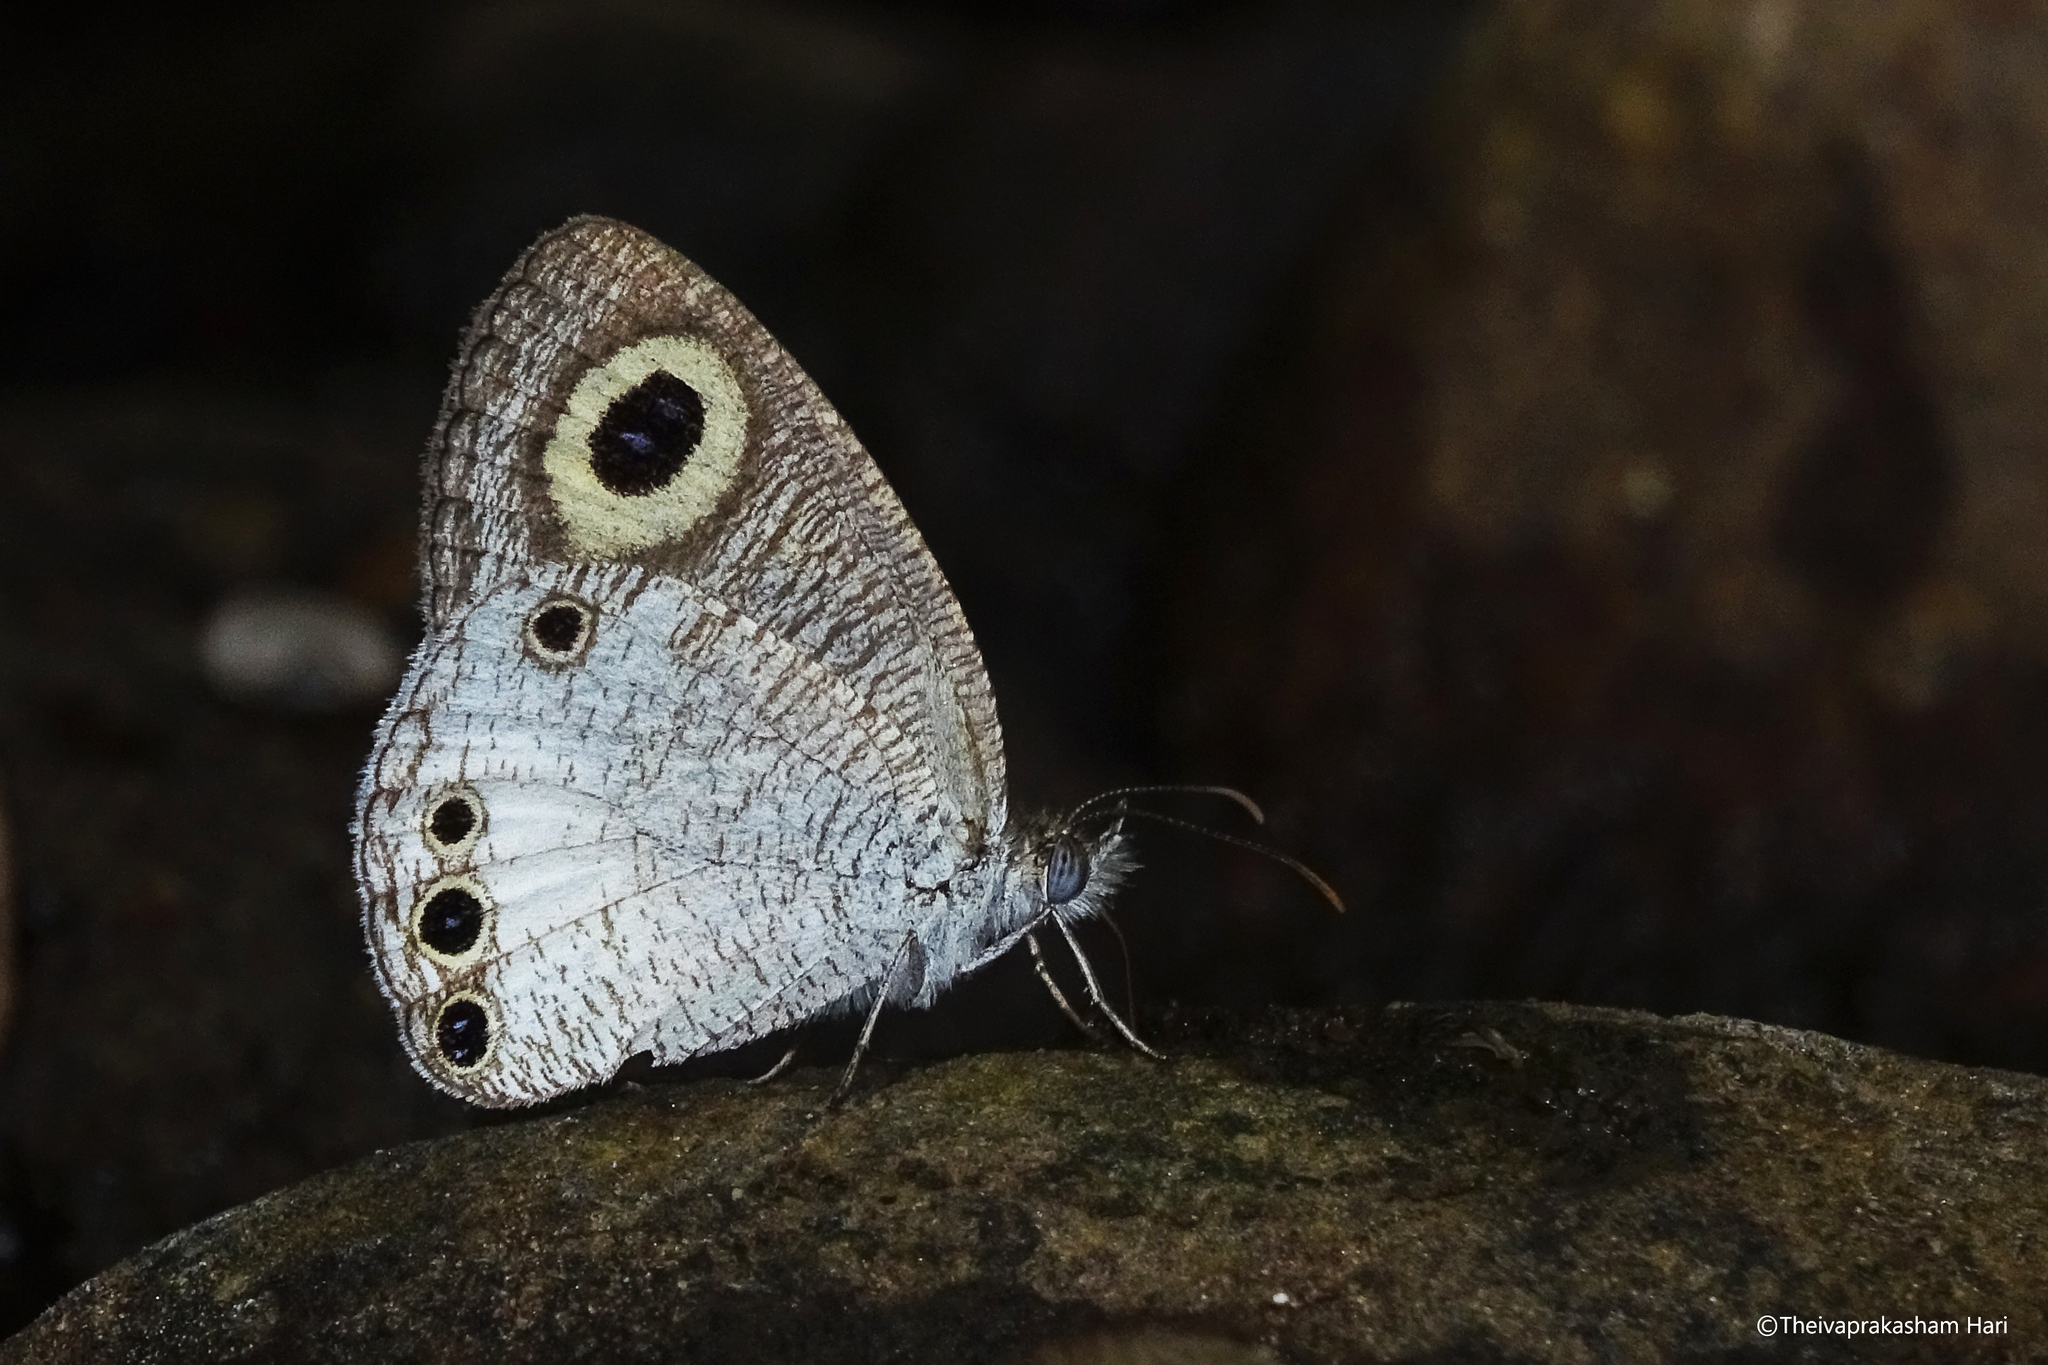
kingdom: Animalia
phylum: Arthropoda
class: Insecta
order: Lepidoptera
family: Nymphalidae
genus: Ypthima
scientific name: Ypthima ceylonica
